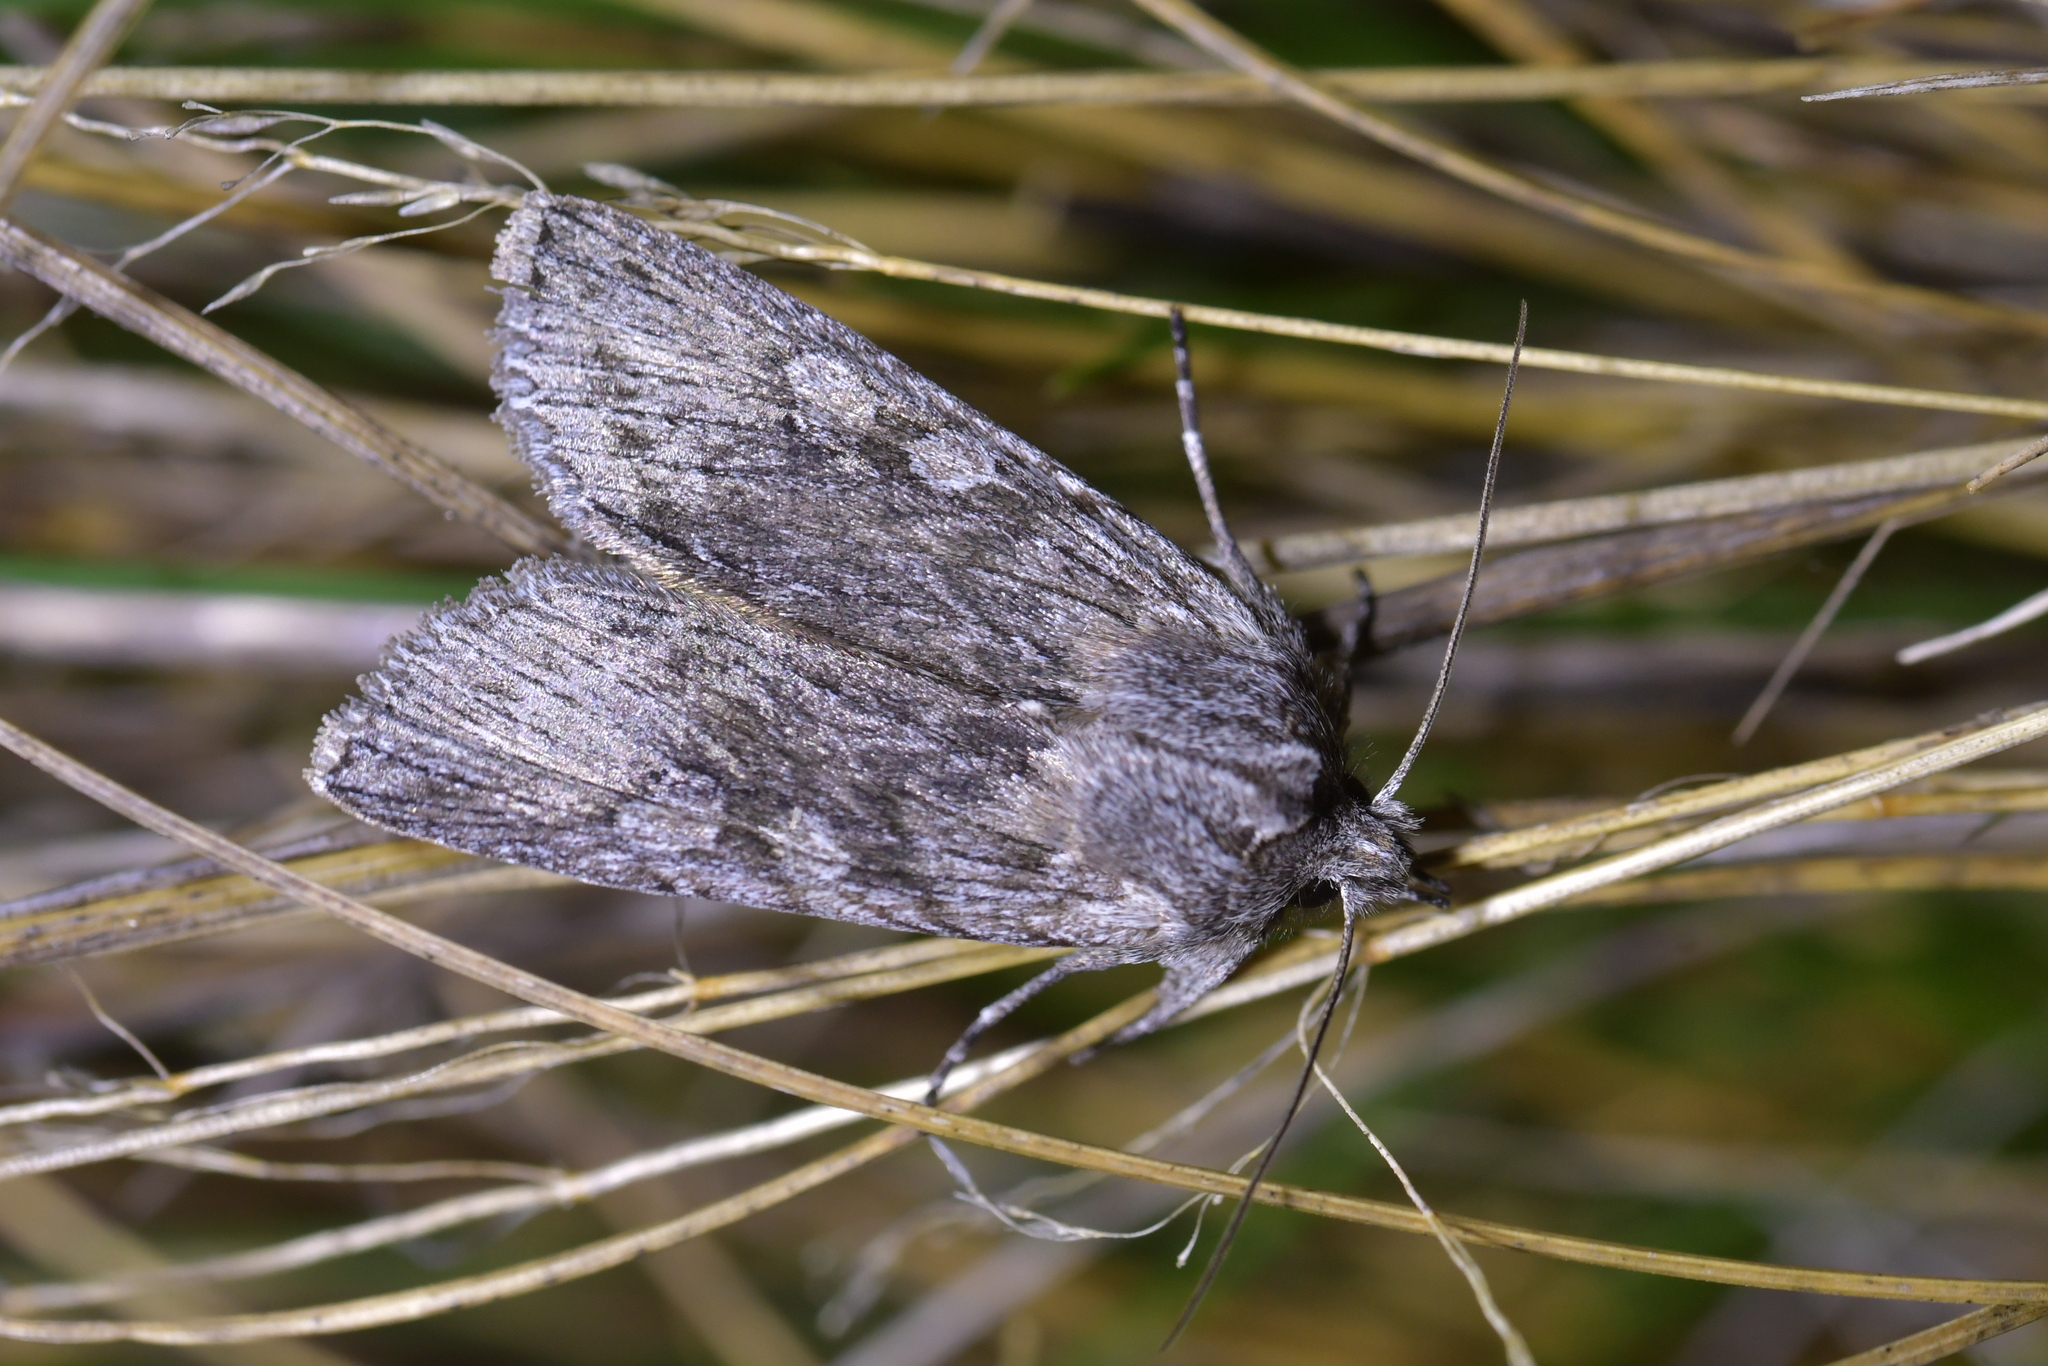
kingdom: Animalia
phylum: Arthropoda
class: Insecta
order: Lepidoptera
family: Noctuidae
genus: Physetica
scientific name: Physetica phricias
